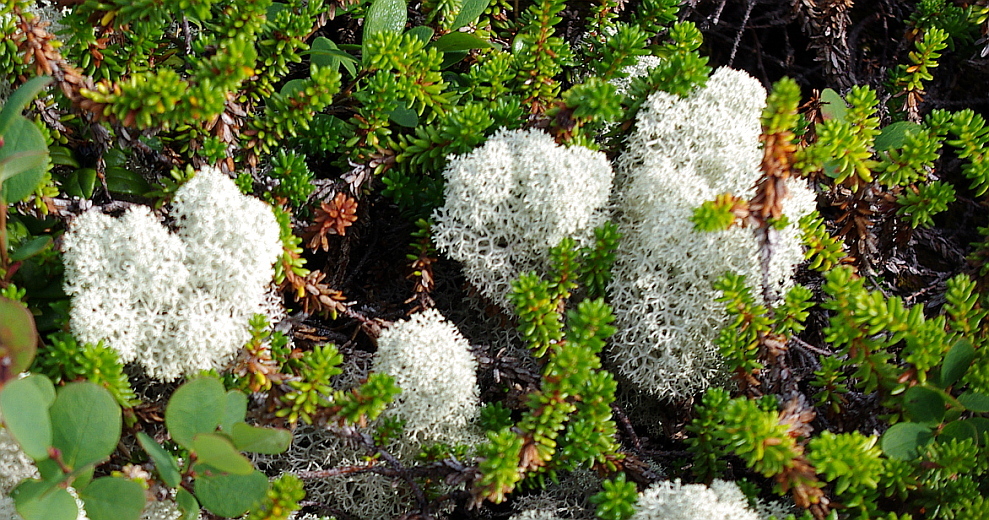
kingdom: Fungi
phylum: Ascomycota
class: Lecanoromycetes
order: Lecanorales
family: Cladoniaceae
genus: Cladonia
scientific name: Cladonia stellaris
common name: Star-tipped reindeer lichen
